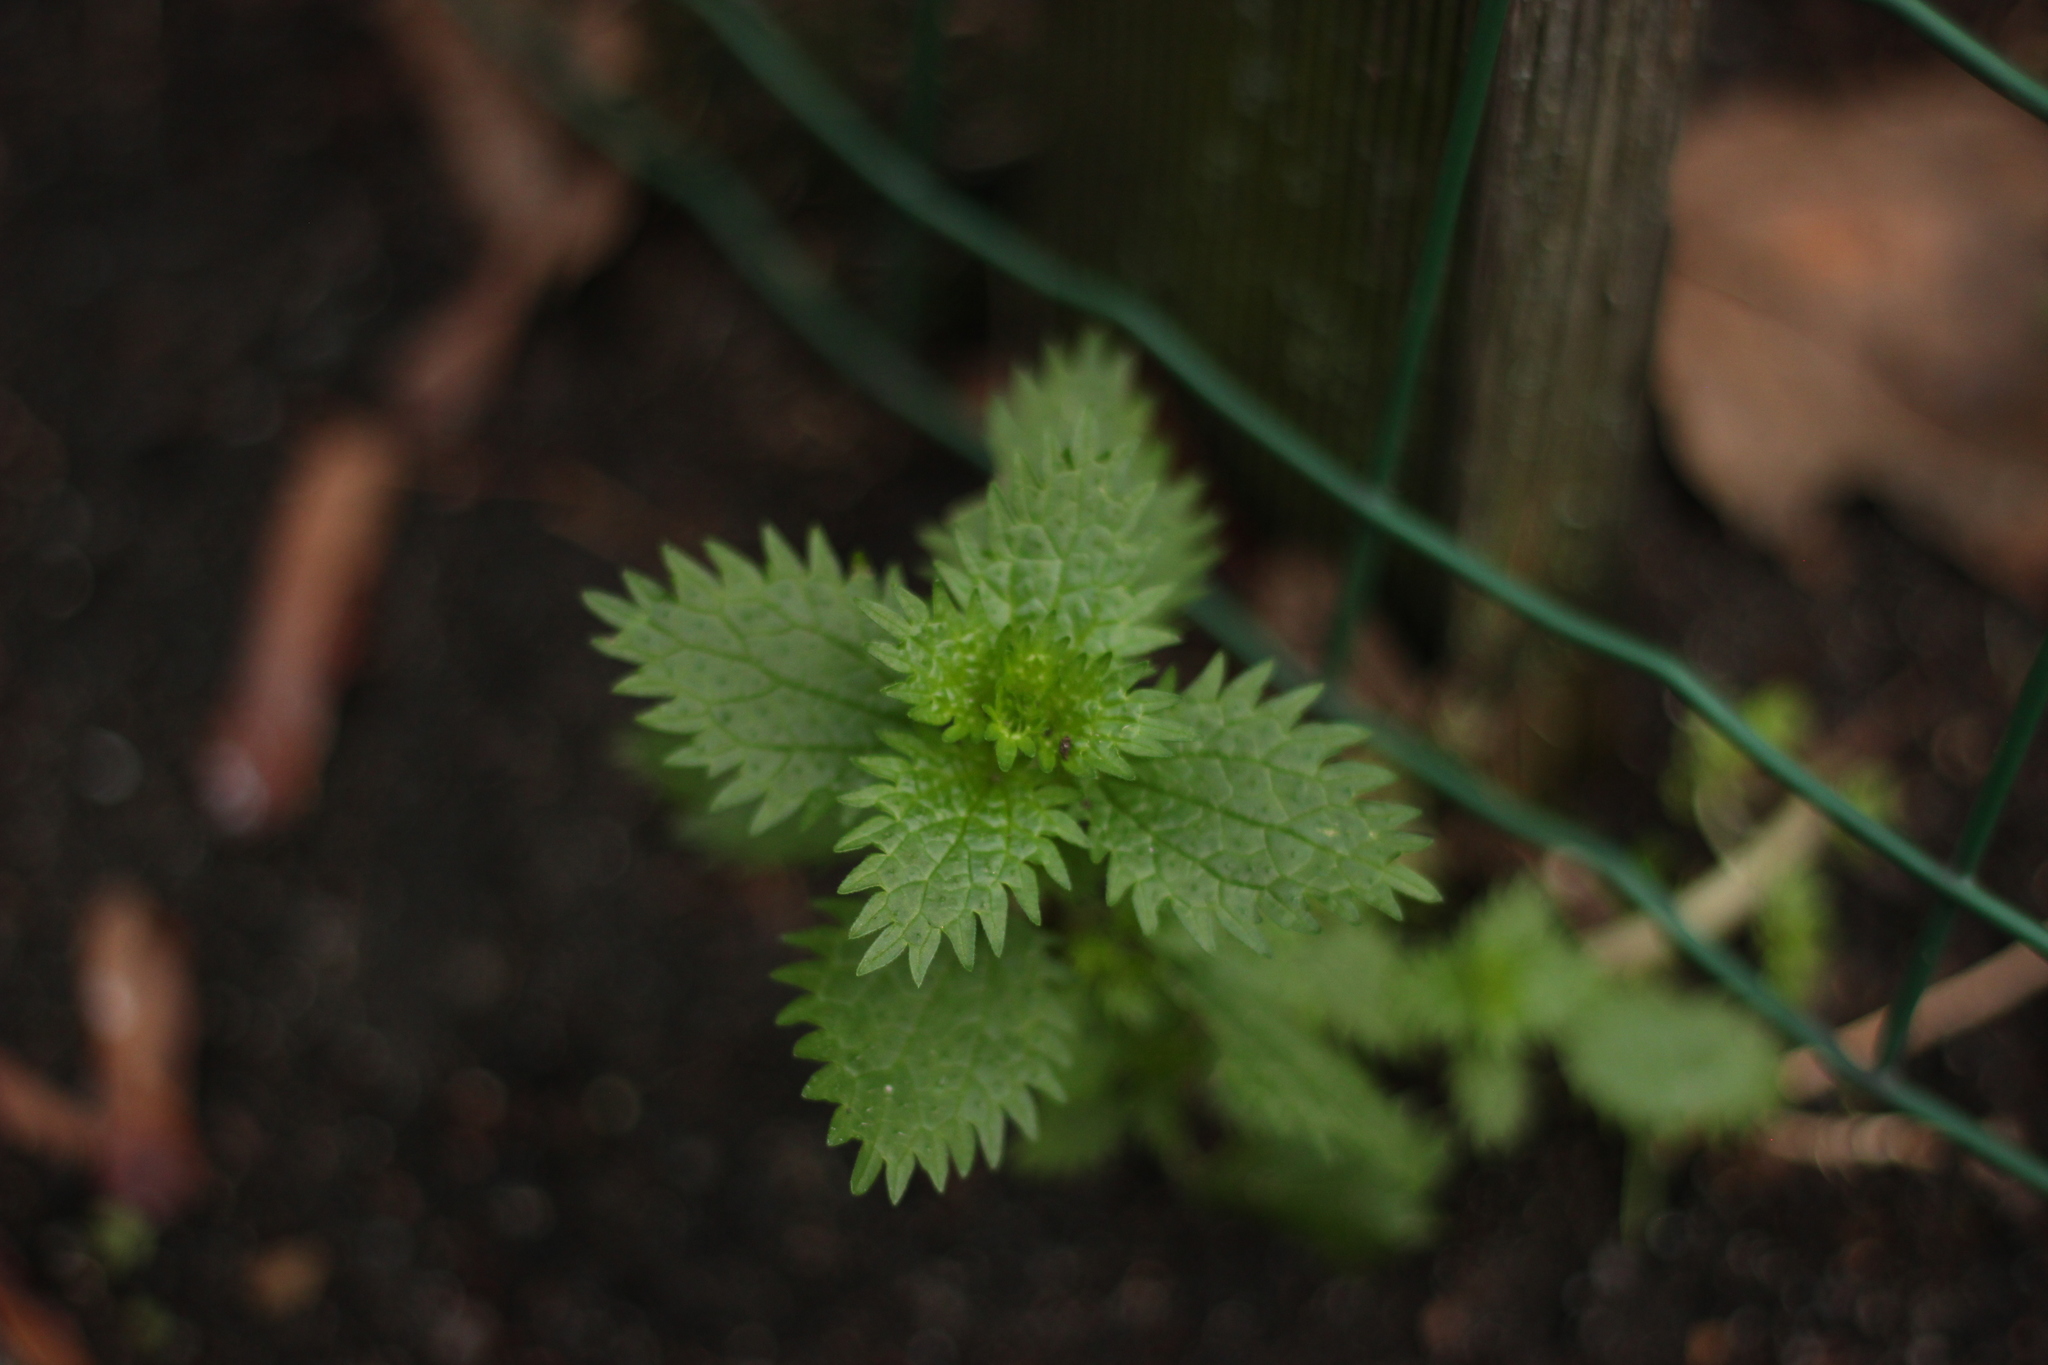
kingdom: Plantae
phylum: Tracheophyta
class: Magnoliopsida
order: Rosales
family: Urticaceae
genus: Urtica
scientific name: Urtica urens
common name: Dwarf nettle
